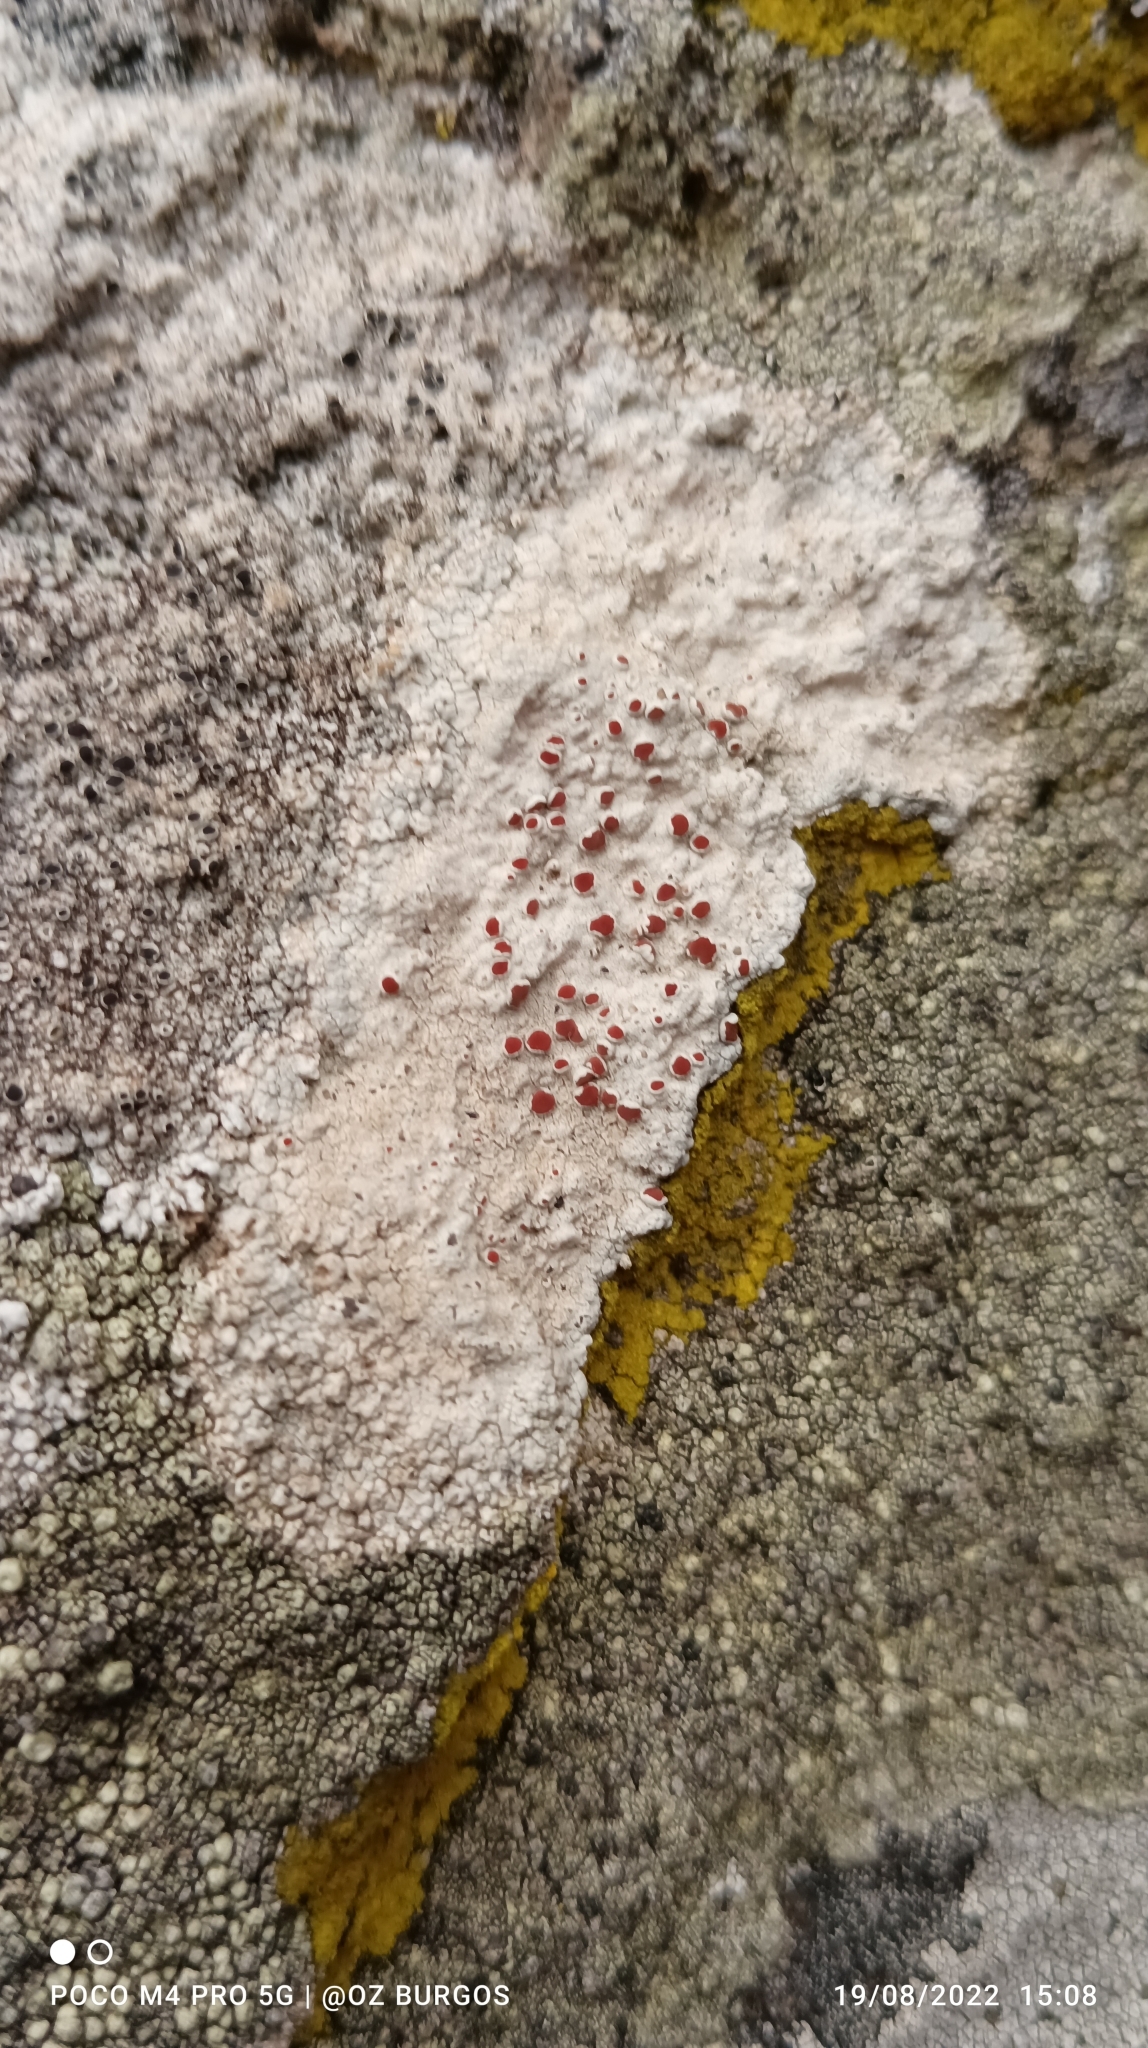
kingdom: Fungi
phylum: Ascomycota
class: Lecanoromycetes
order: Lecanorales
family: Haematommataceae
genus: Haematomma
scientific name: Haematomma fenzlianum
